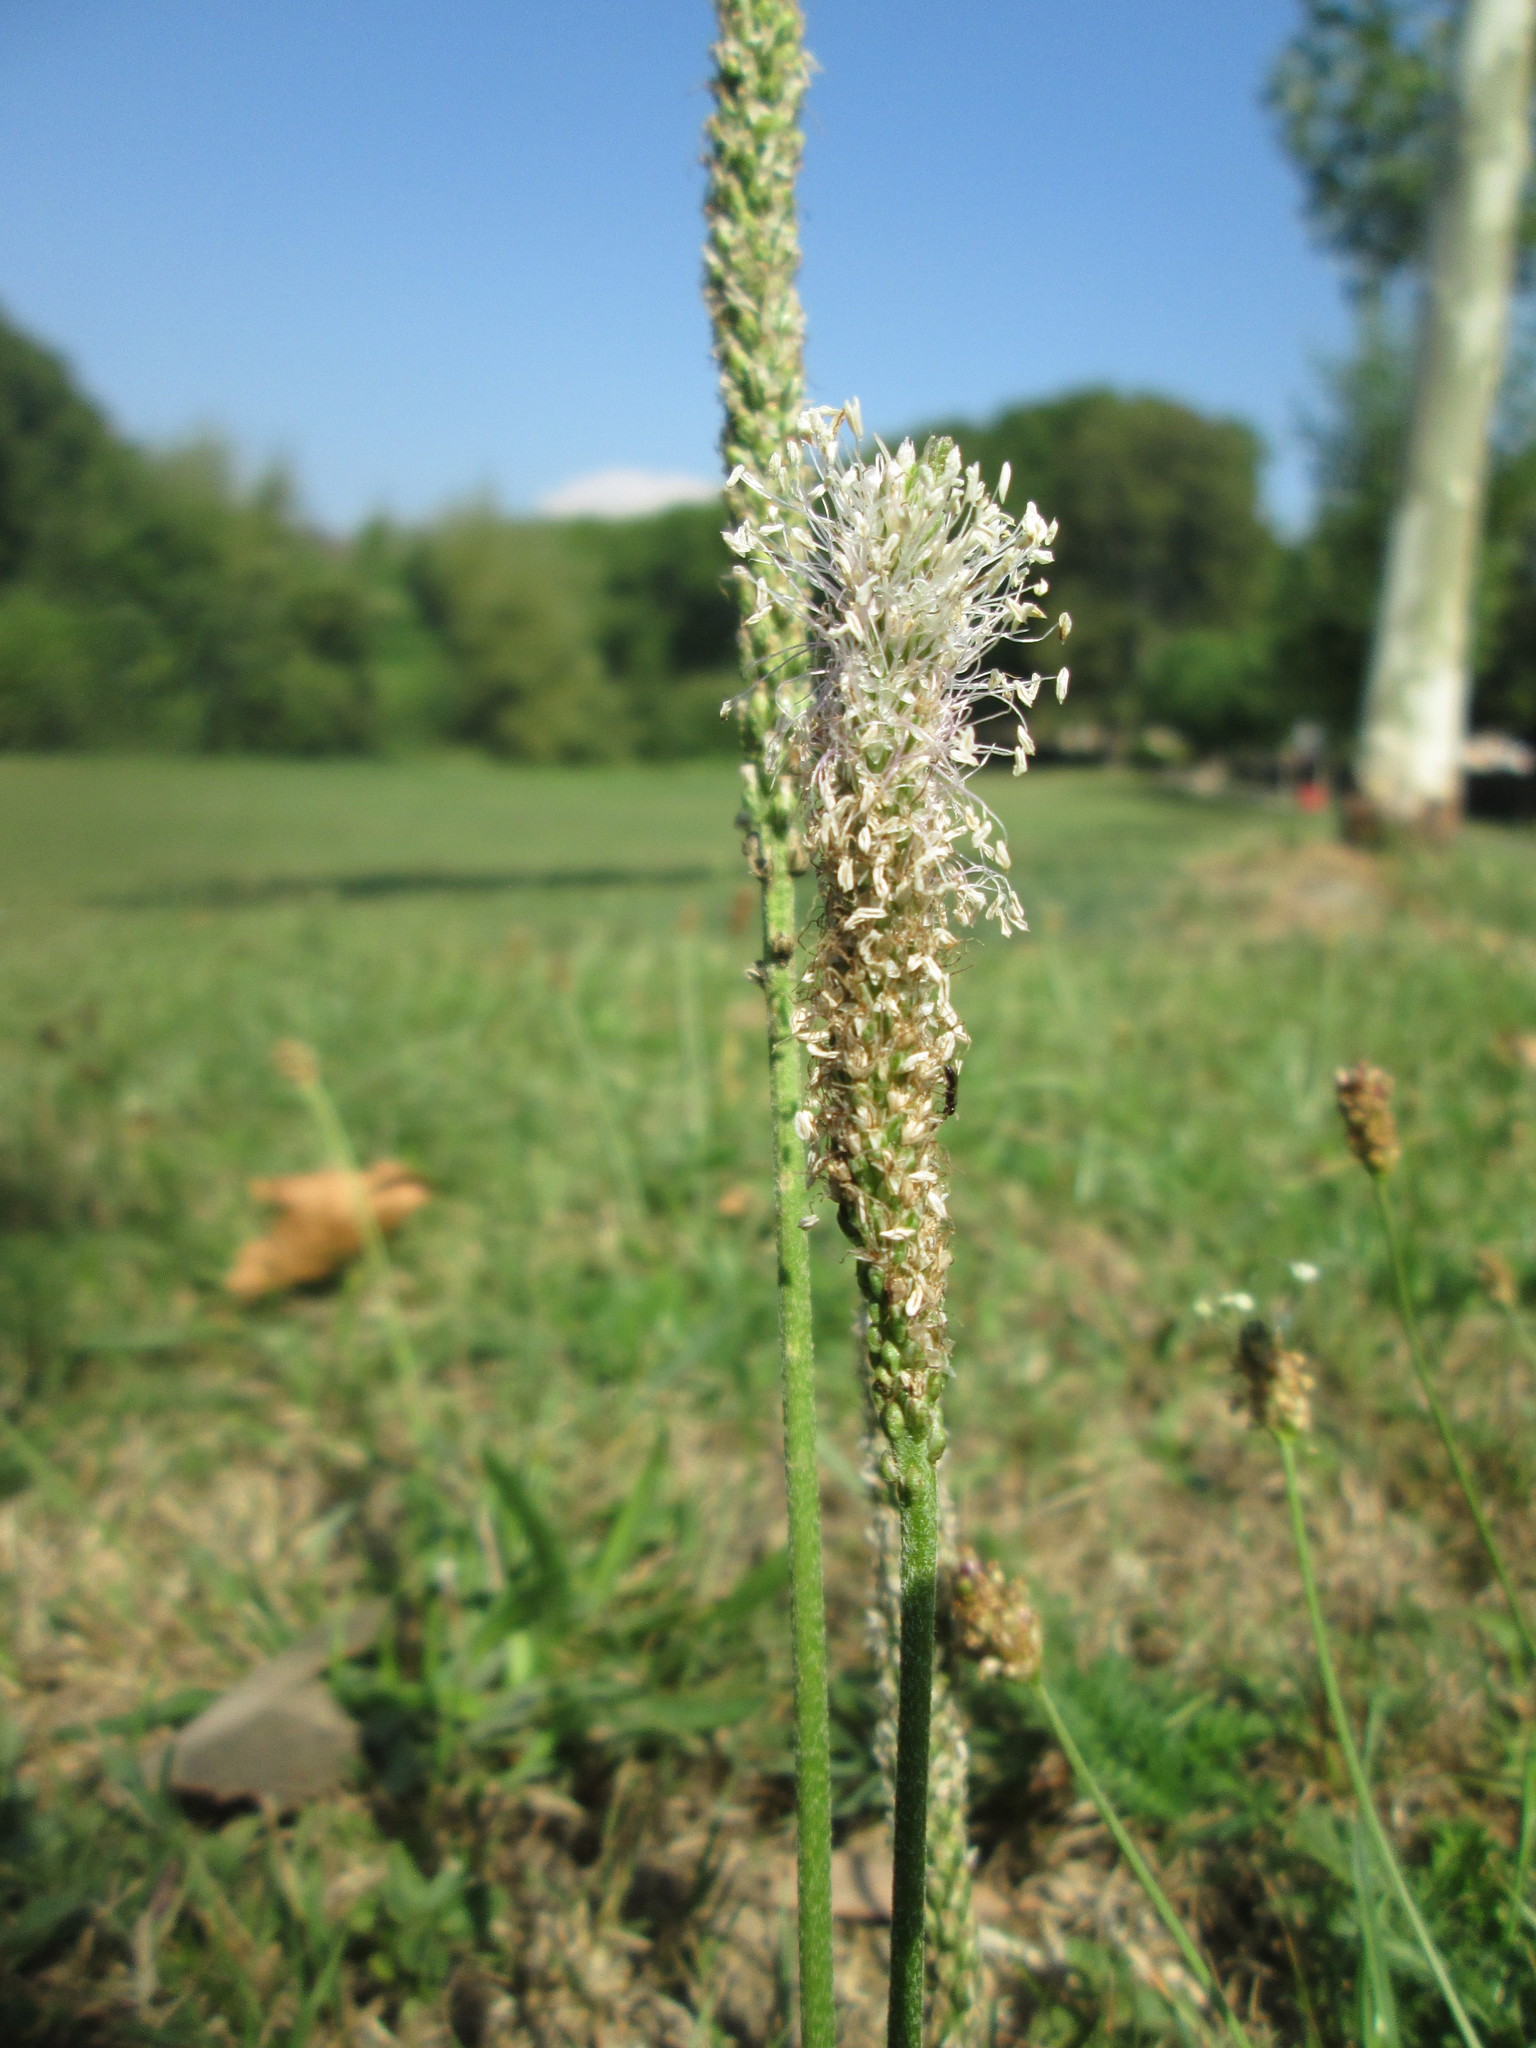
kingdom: Plantae
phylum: Tracheophyta
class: Magnoliopsida
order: Lamiales
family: Plantaginaceae
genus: Plantago
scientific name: Plantago media
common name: Hoary plantain
